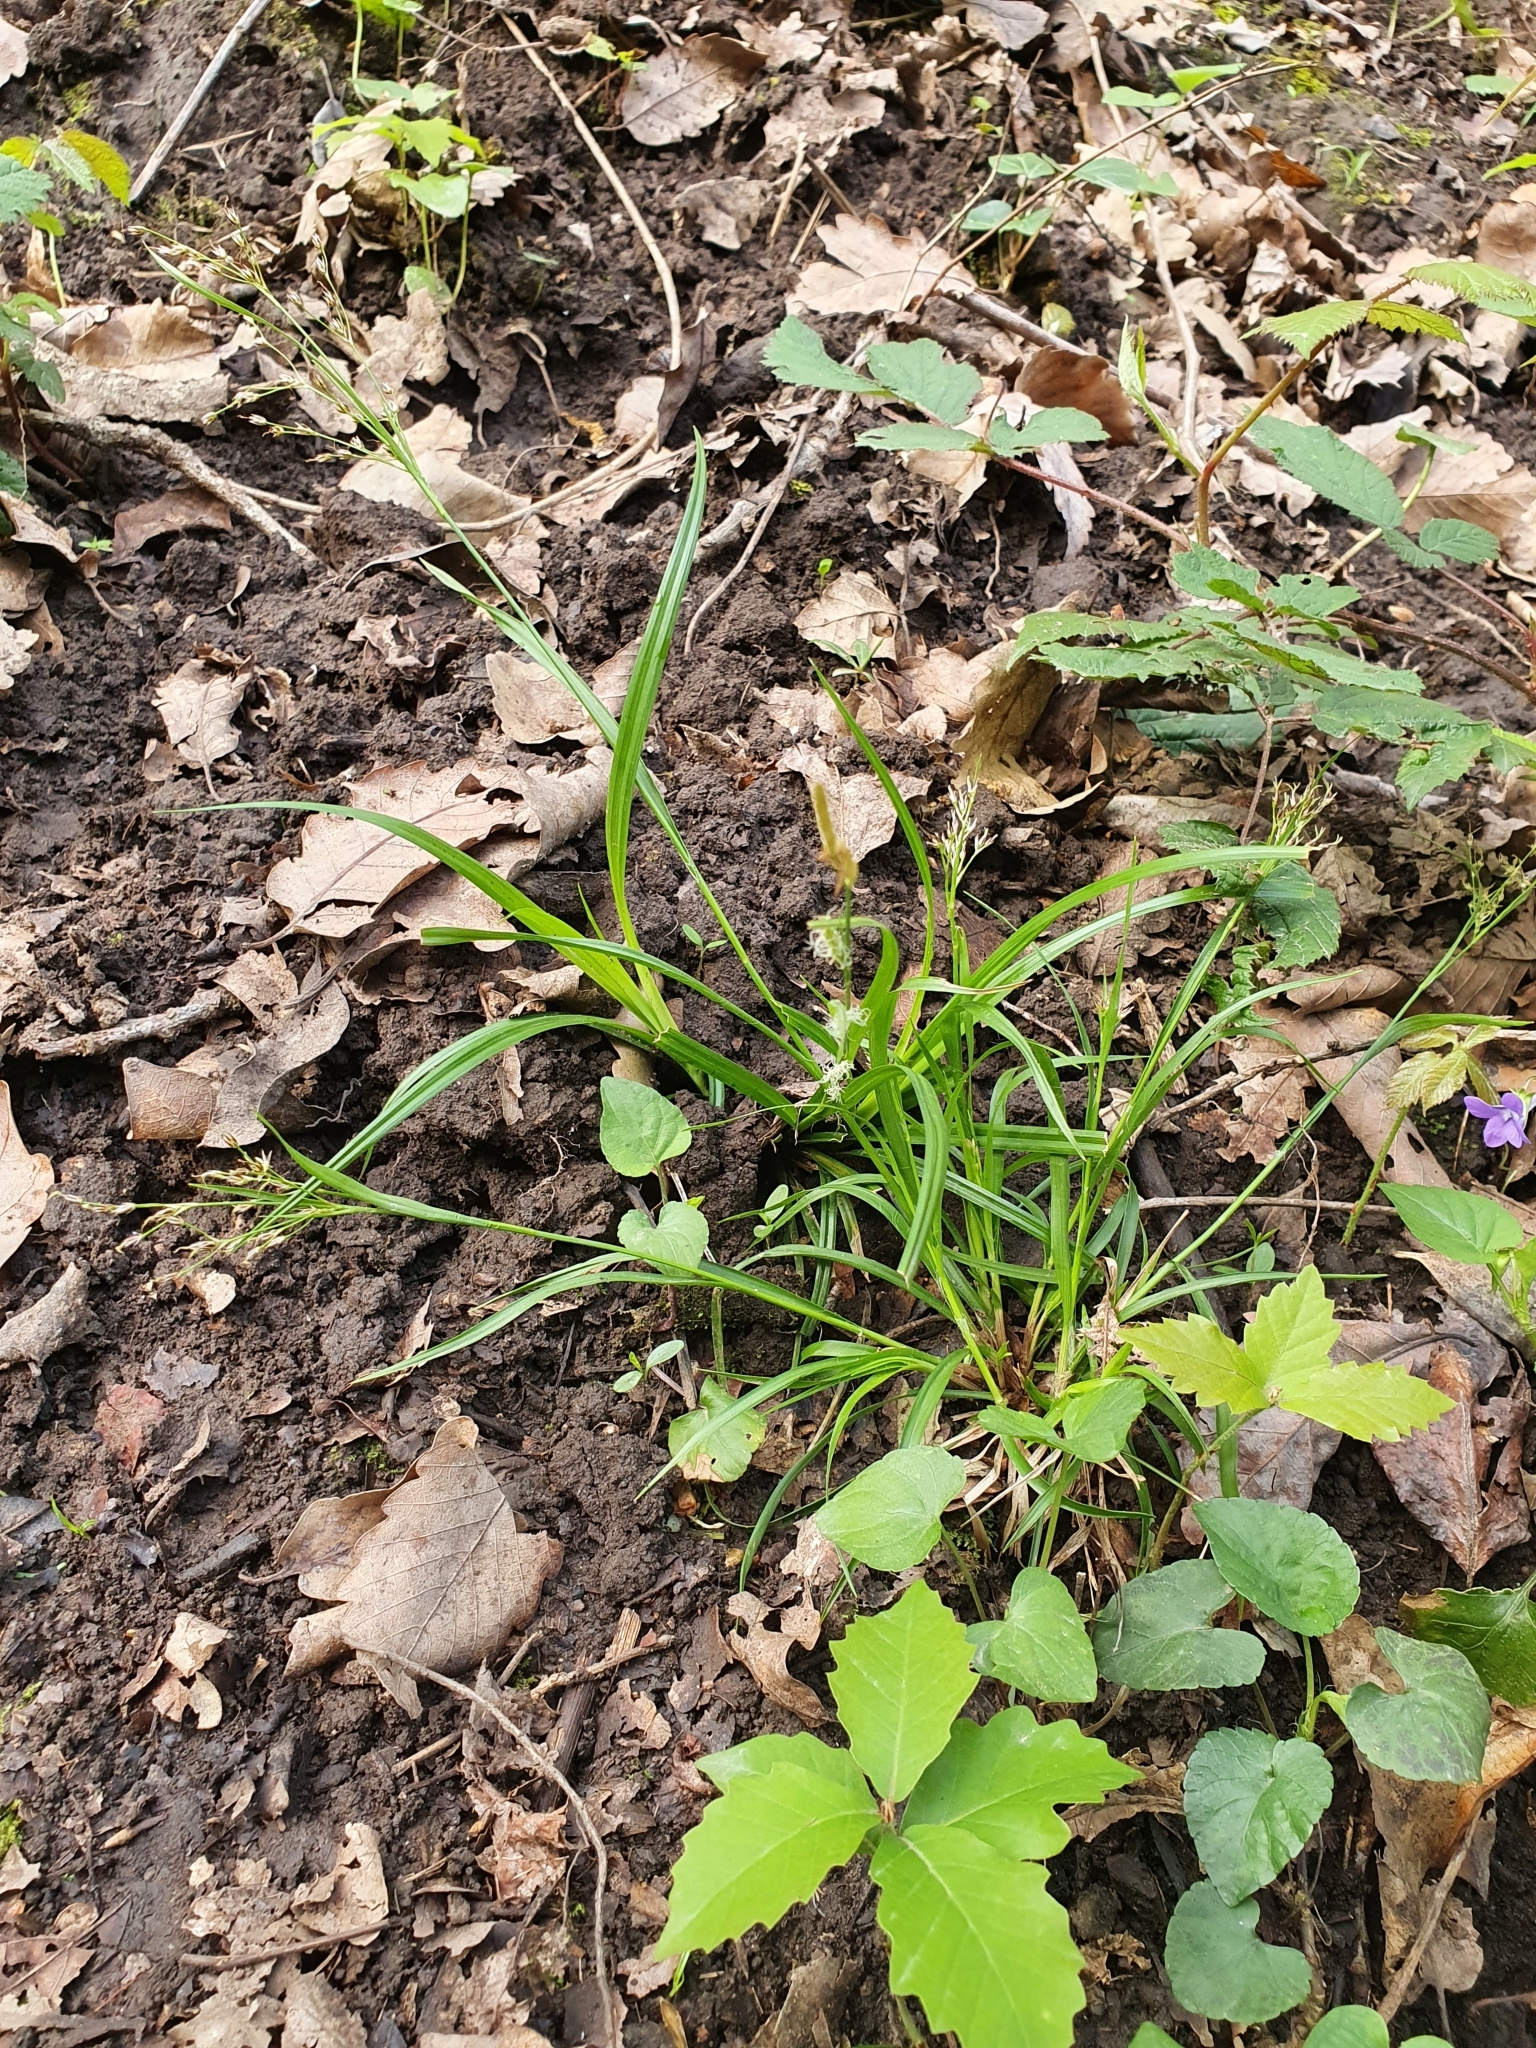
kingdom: Plantae
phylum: Tracheophyta
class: Liliopsida
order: Poales
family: Juncaceae
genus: Luzula
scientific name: Luzula forsteri
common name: Southern wood-rush
